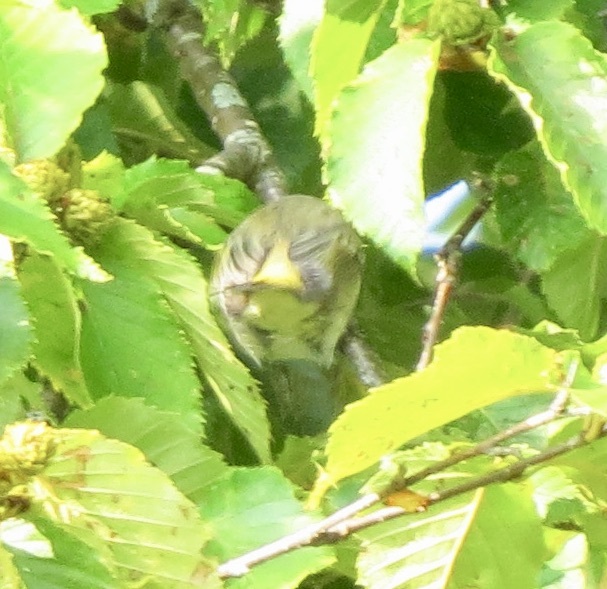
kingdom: Animalia
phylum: Chordata
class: Aves
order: Passeriformes
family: Parulidae
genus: Setophaga
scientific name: Setophaga tigrina
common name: Cape may warbler
